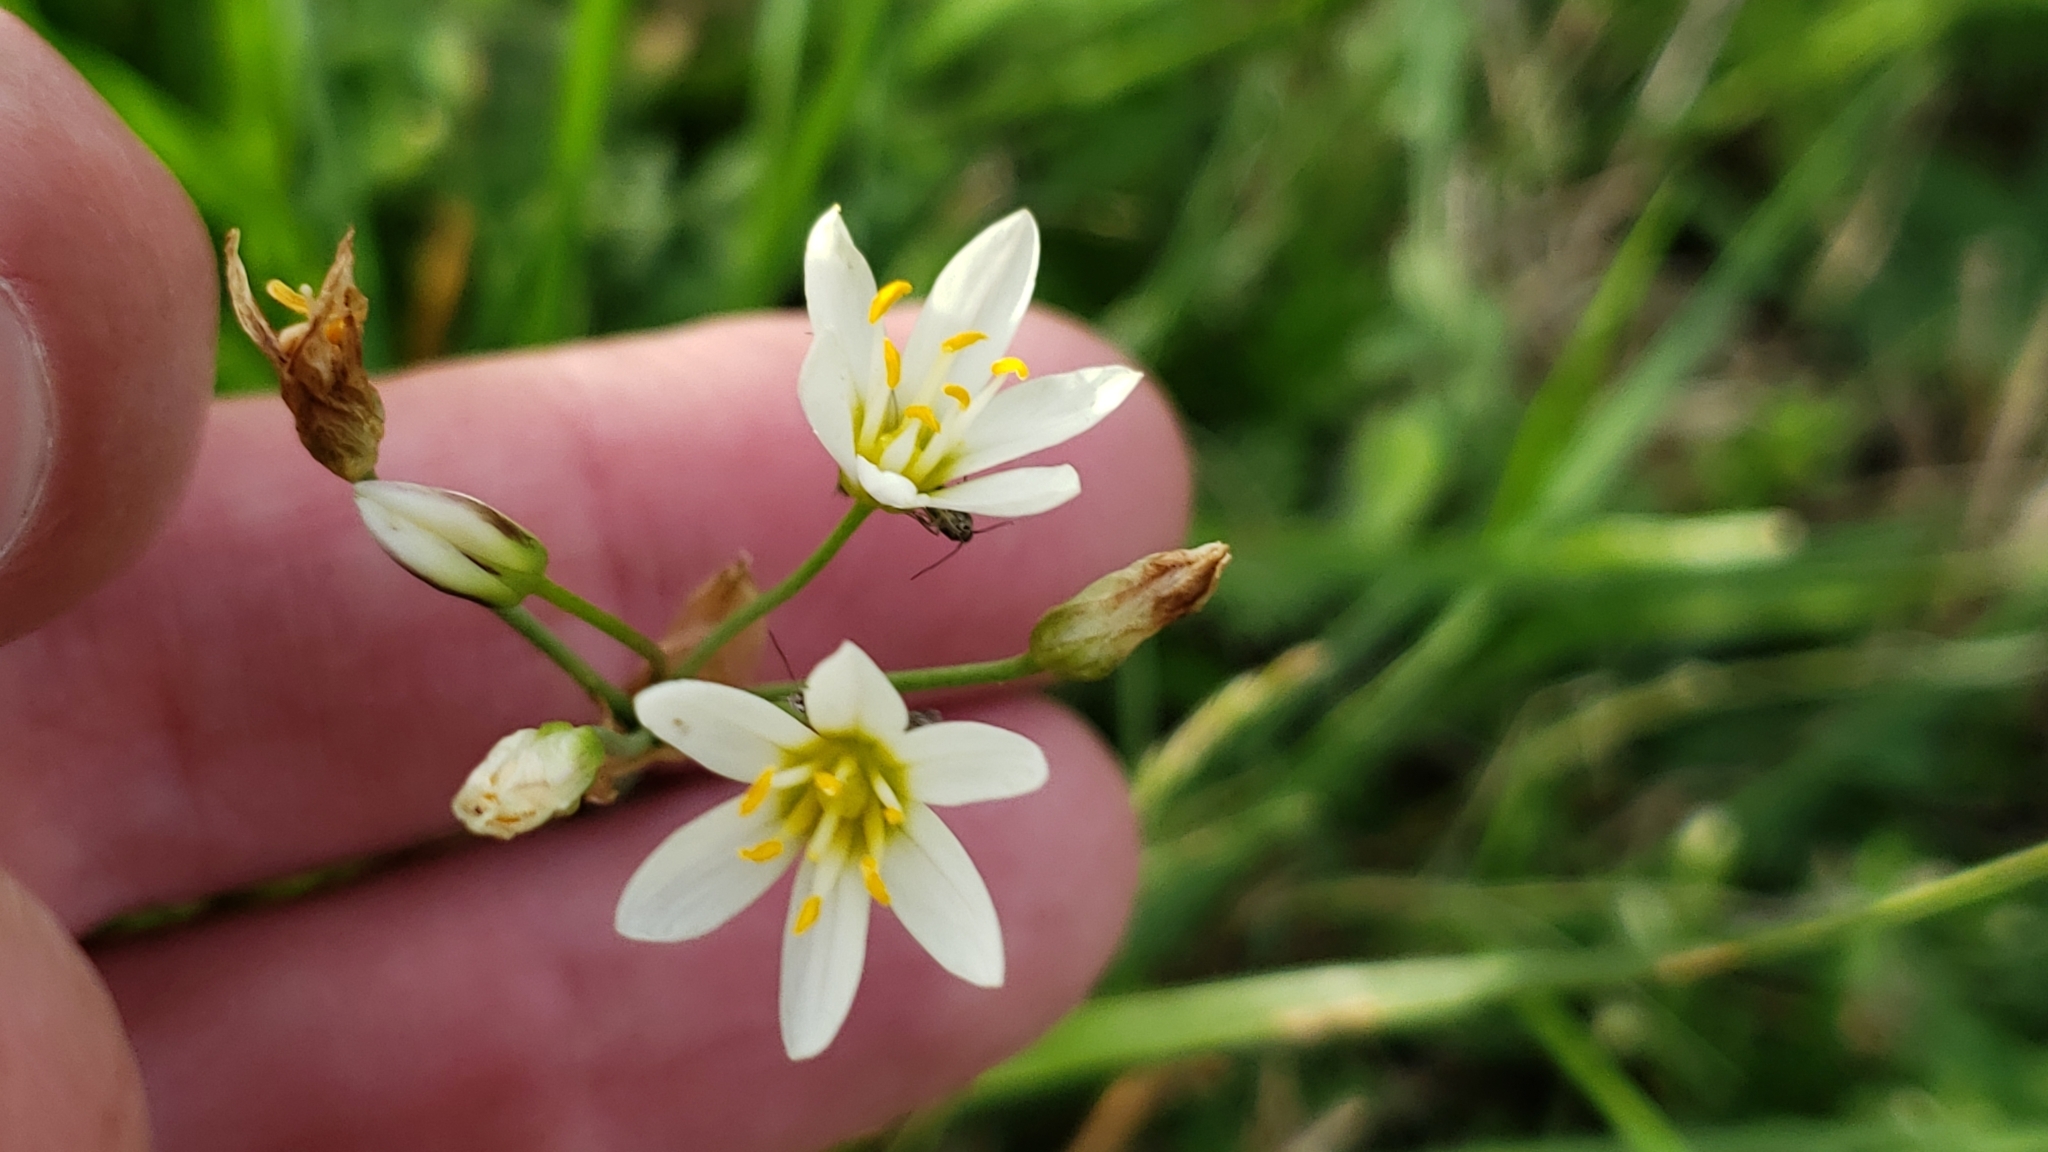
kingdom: Plantae
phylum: Tracheophyta
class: Liliopsida
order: Asparagales
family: Amaryllidaceae
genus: Nothoscordum
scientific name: Nothoscordum bivalve
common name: Crow-poison
